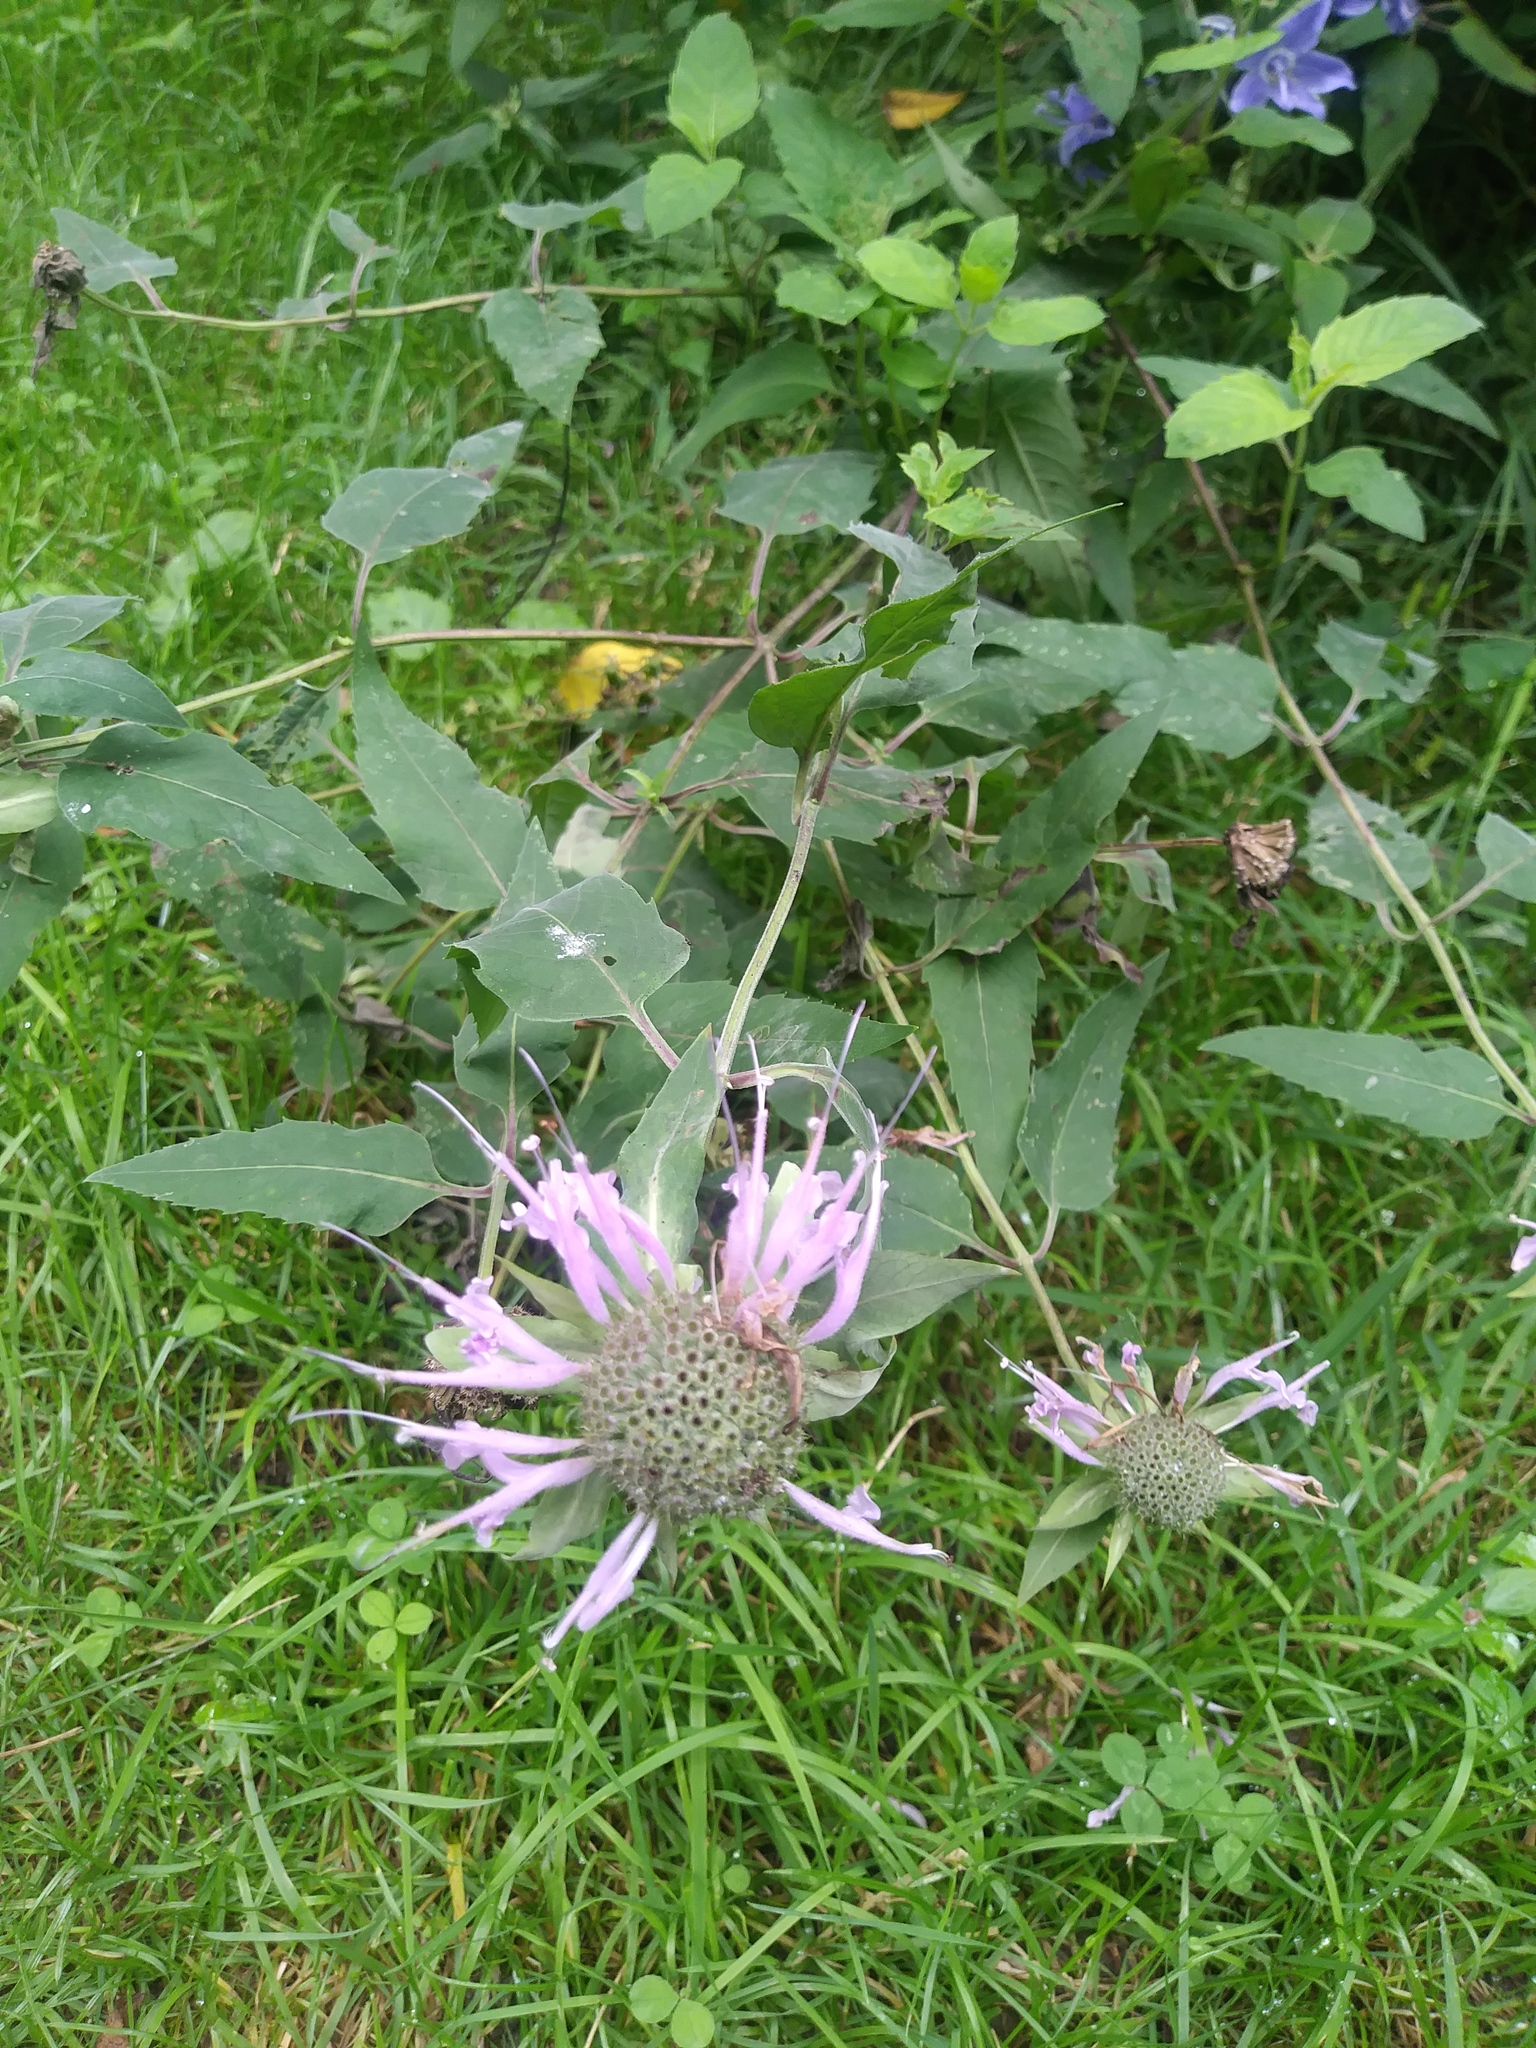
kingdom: Plantae
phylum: Tracheophyta
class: Magnoliopsida
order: Lamiales
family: Lamiaceae
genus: Monarda
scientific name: Monarda fistulosa
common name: Purple beebalm
